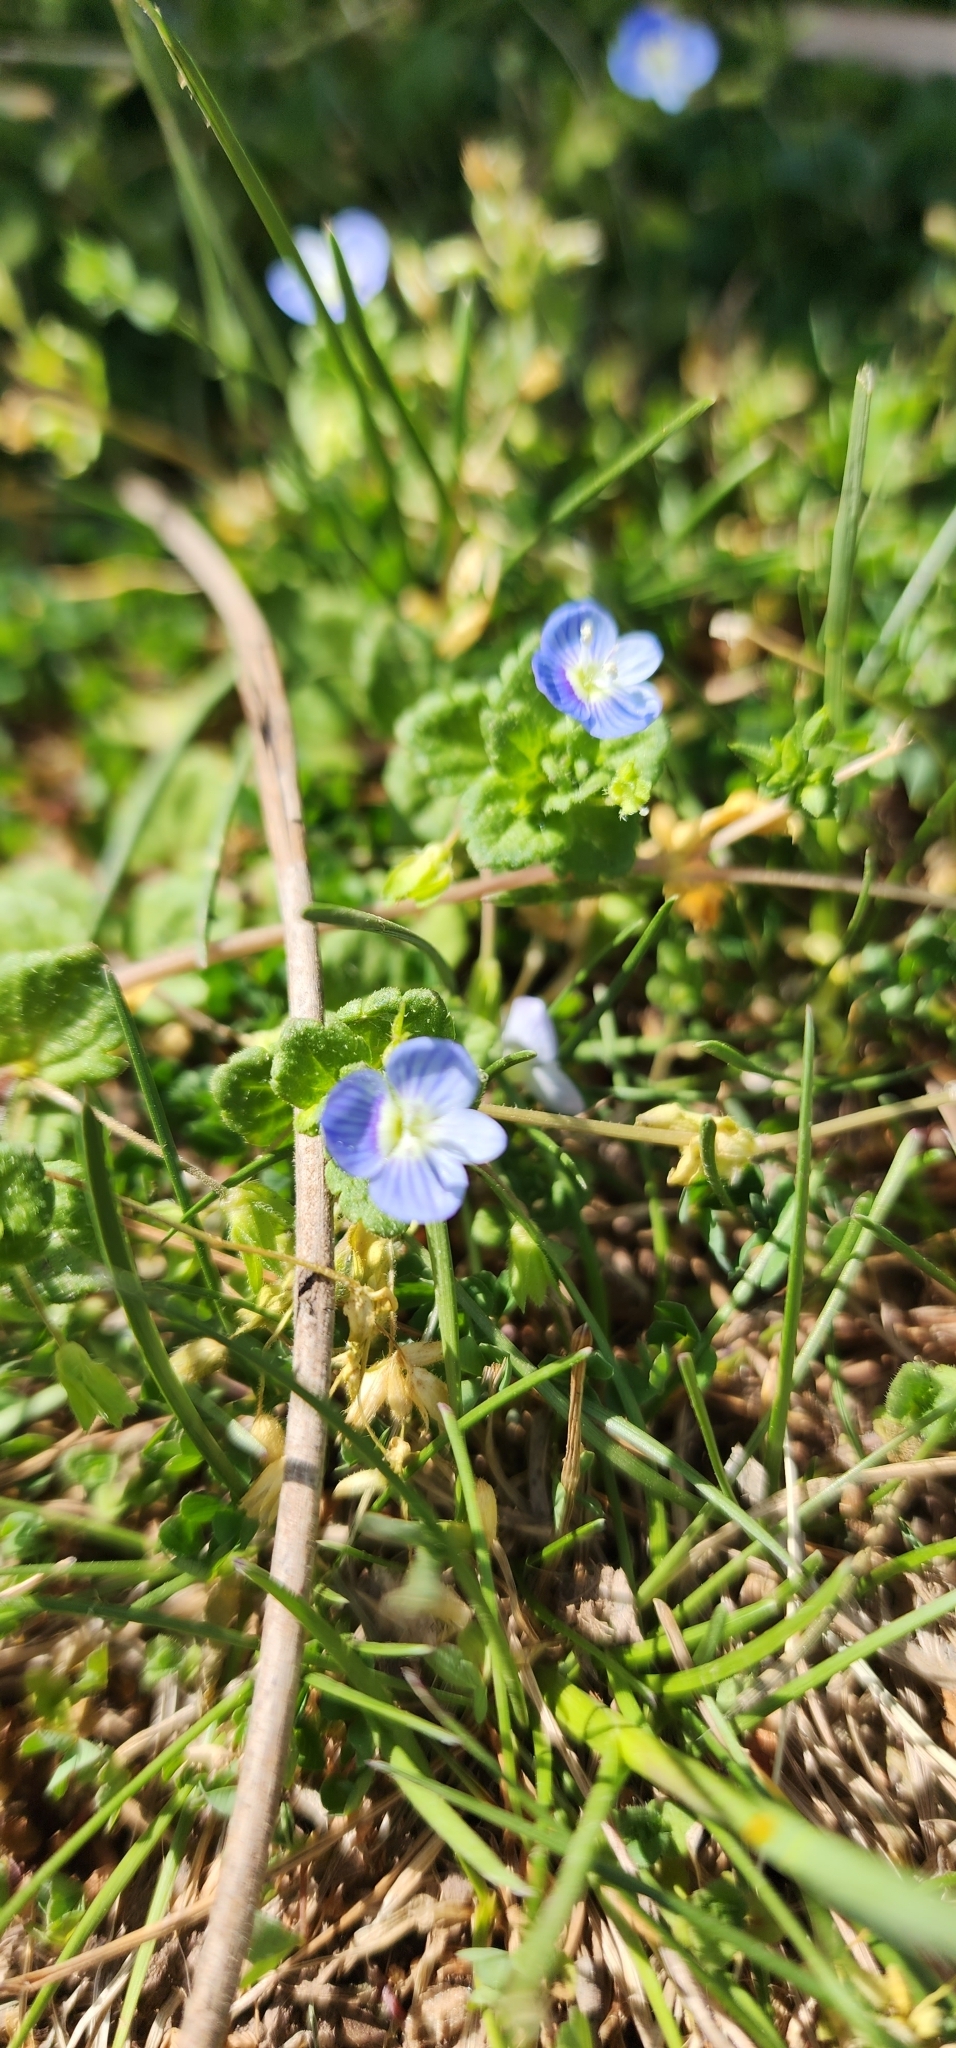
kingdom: Plantae
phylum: Tracheophyta
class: Magnoliopsida
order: Lamiales
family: Plantaginaceae
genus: Veronica
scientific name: Veronica persica
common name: Common field-speedwell
